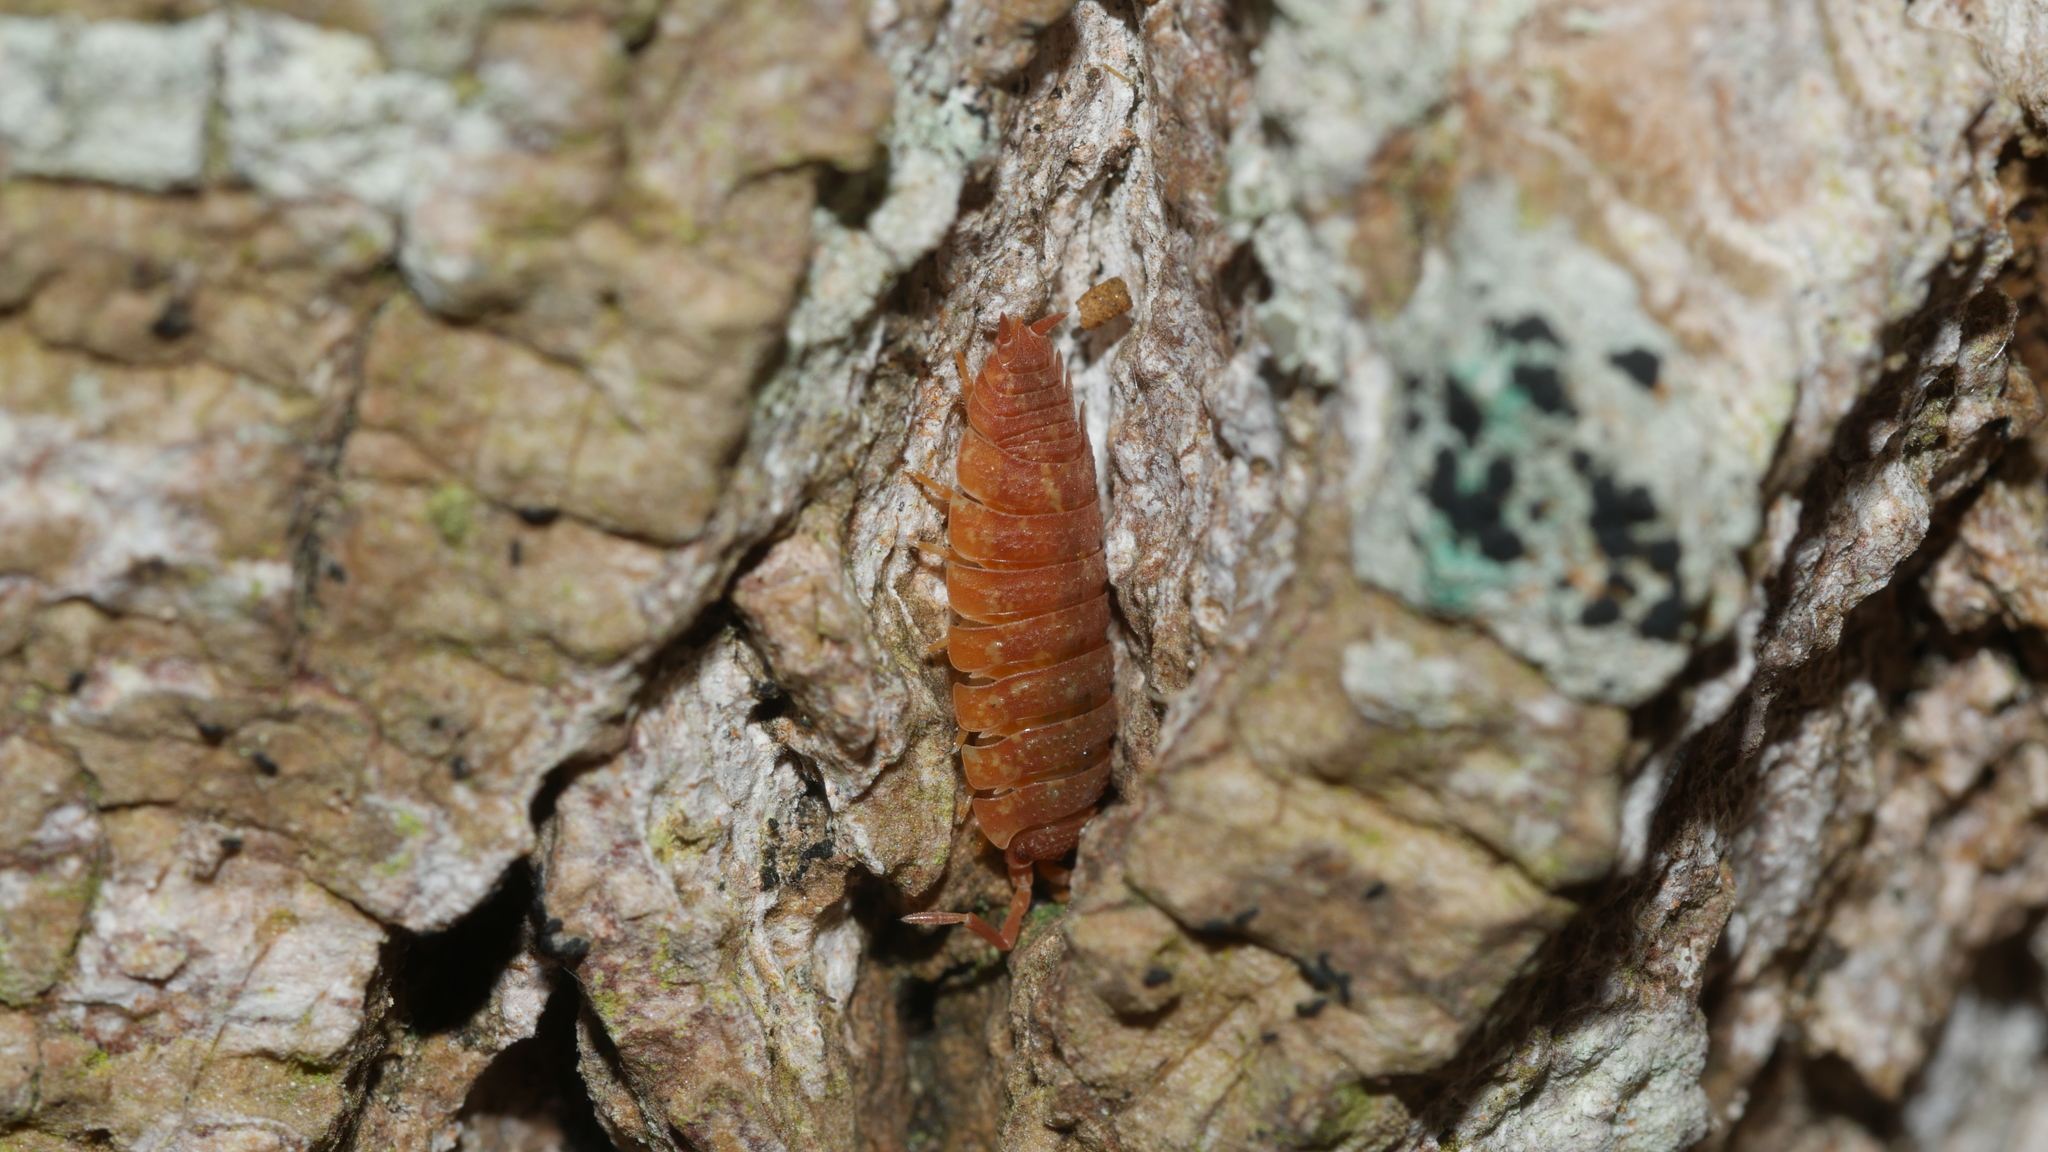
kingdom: Animalia
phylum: Arthropoda
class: Malacostraca
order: Isopoda
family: Porcellionidae
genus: Porcellio
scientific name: Porcellio scaber
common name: Common rough woodlouse
